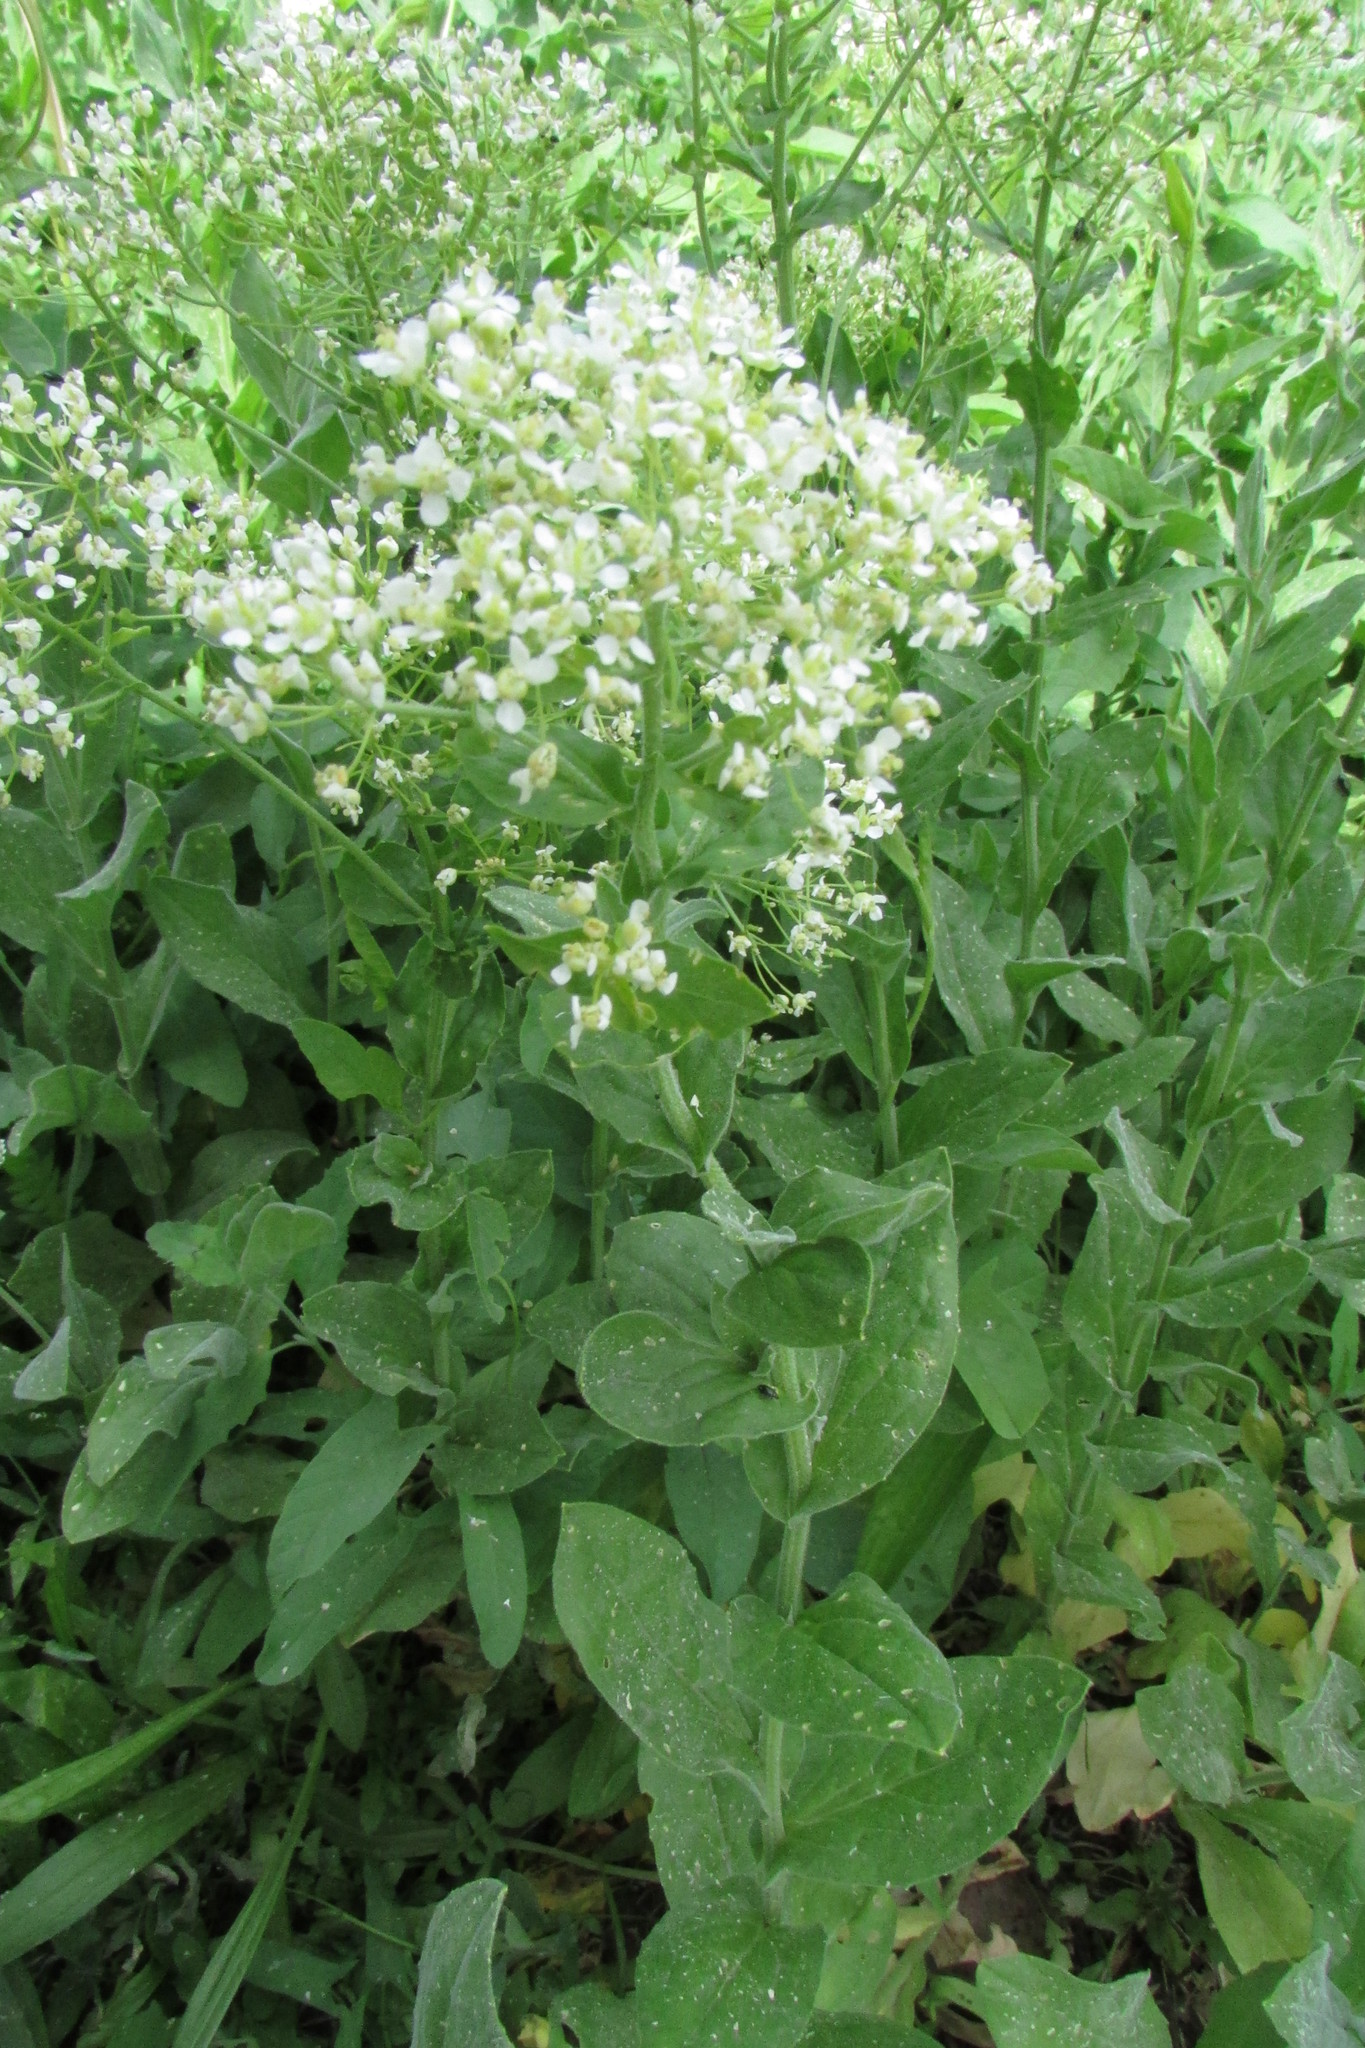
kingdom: Plantae
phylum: Tracheophyta
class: Magnoliopsida
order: Brassicales
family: Brassicaceae
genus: Lepidium
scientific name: Lepidium draba
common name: Hoary cress
